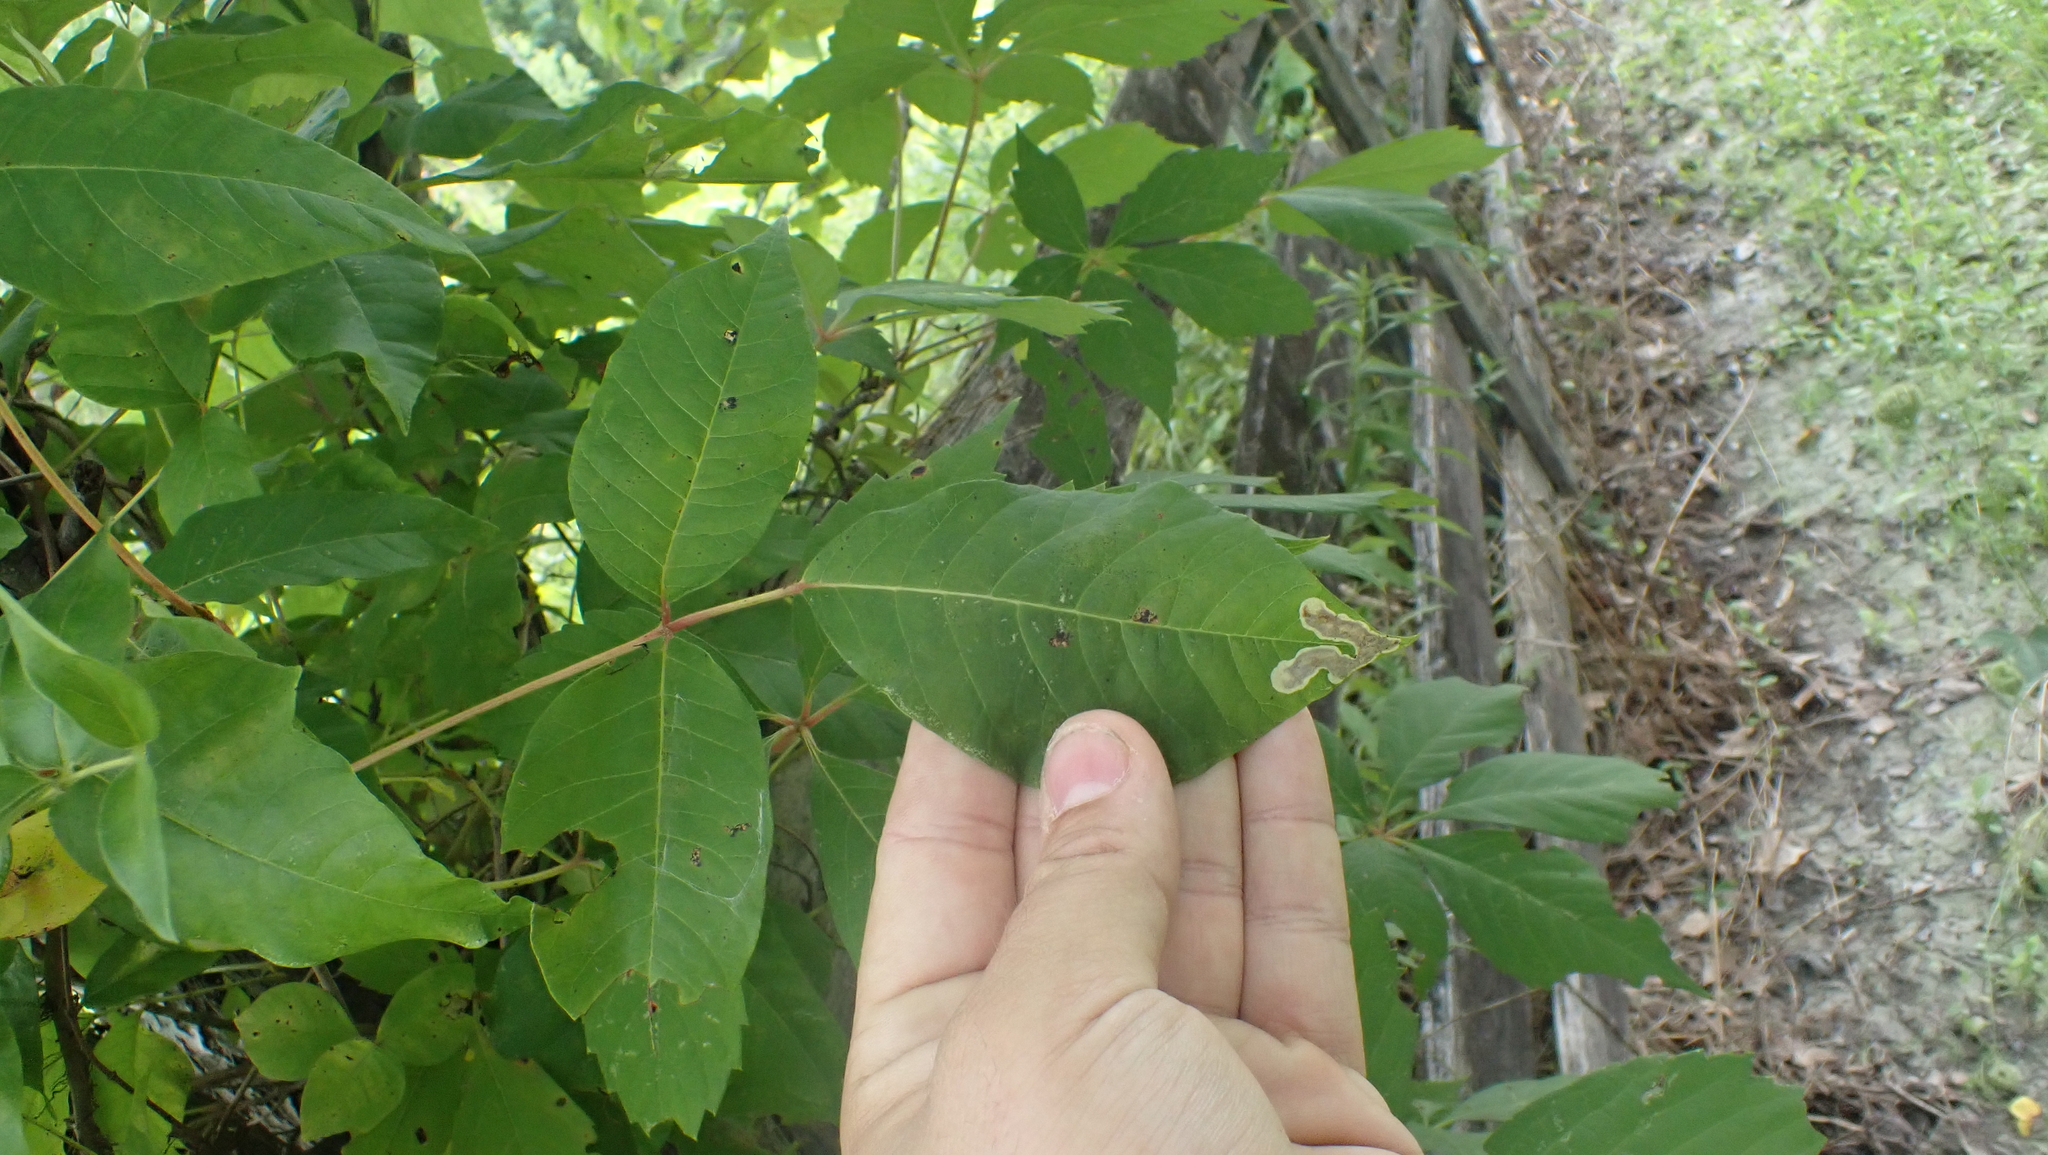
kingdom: Animalia
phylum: Arthropoda
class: Insecta
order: Lepidoptera
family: Gracillariidae
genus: Cameraria
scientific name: Cameraria guttifinitella
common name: Poison ivy leaf-miner moth
